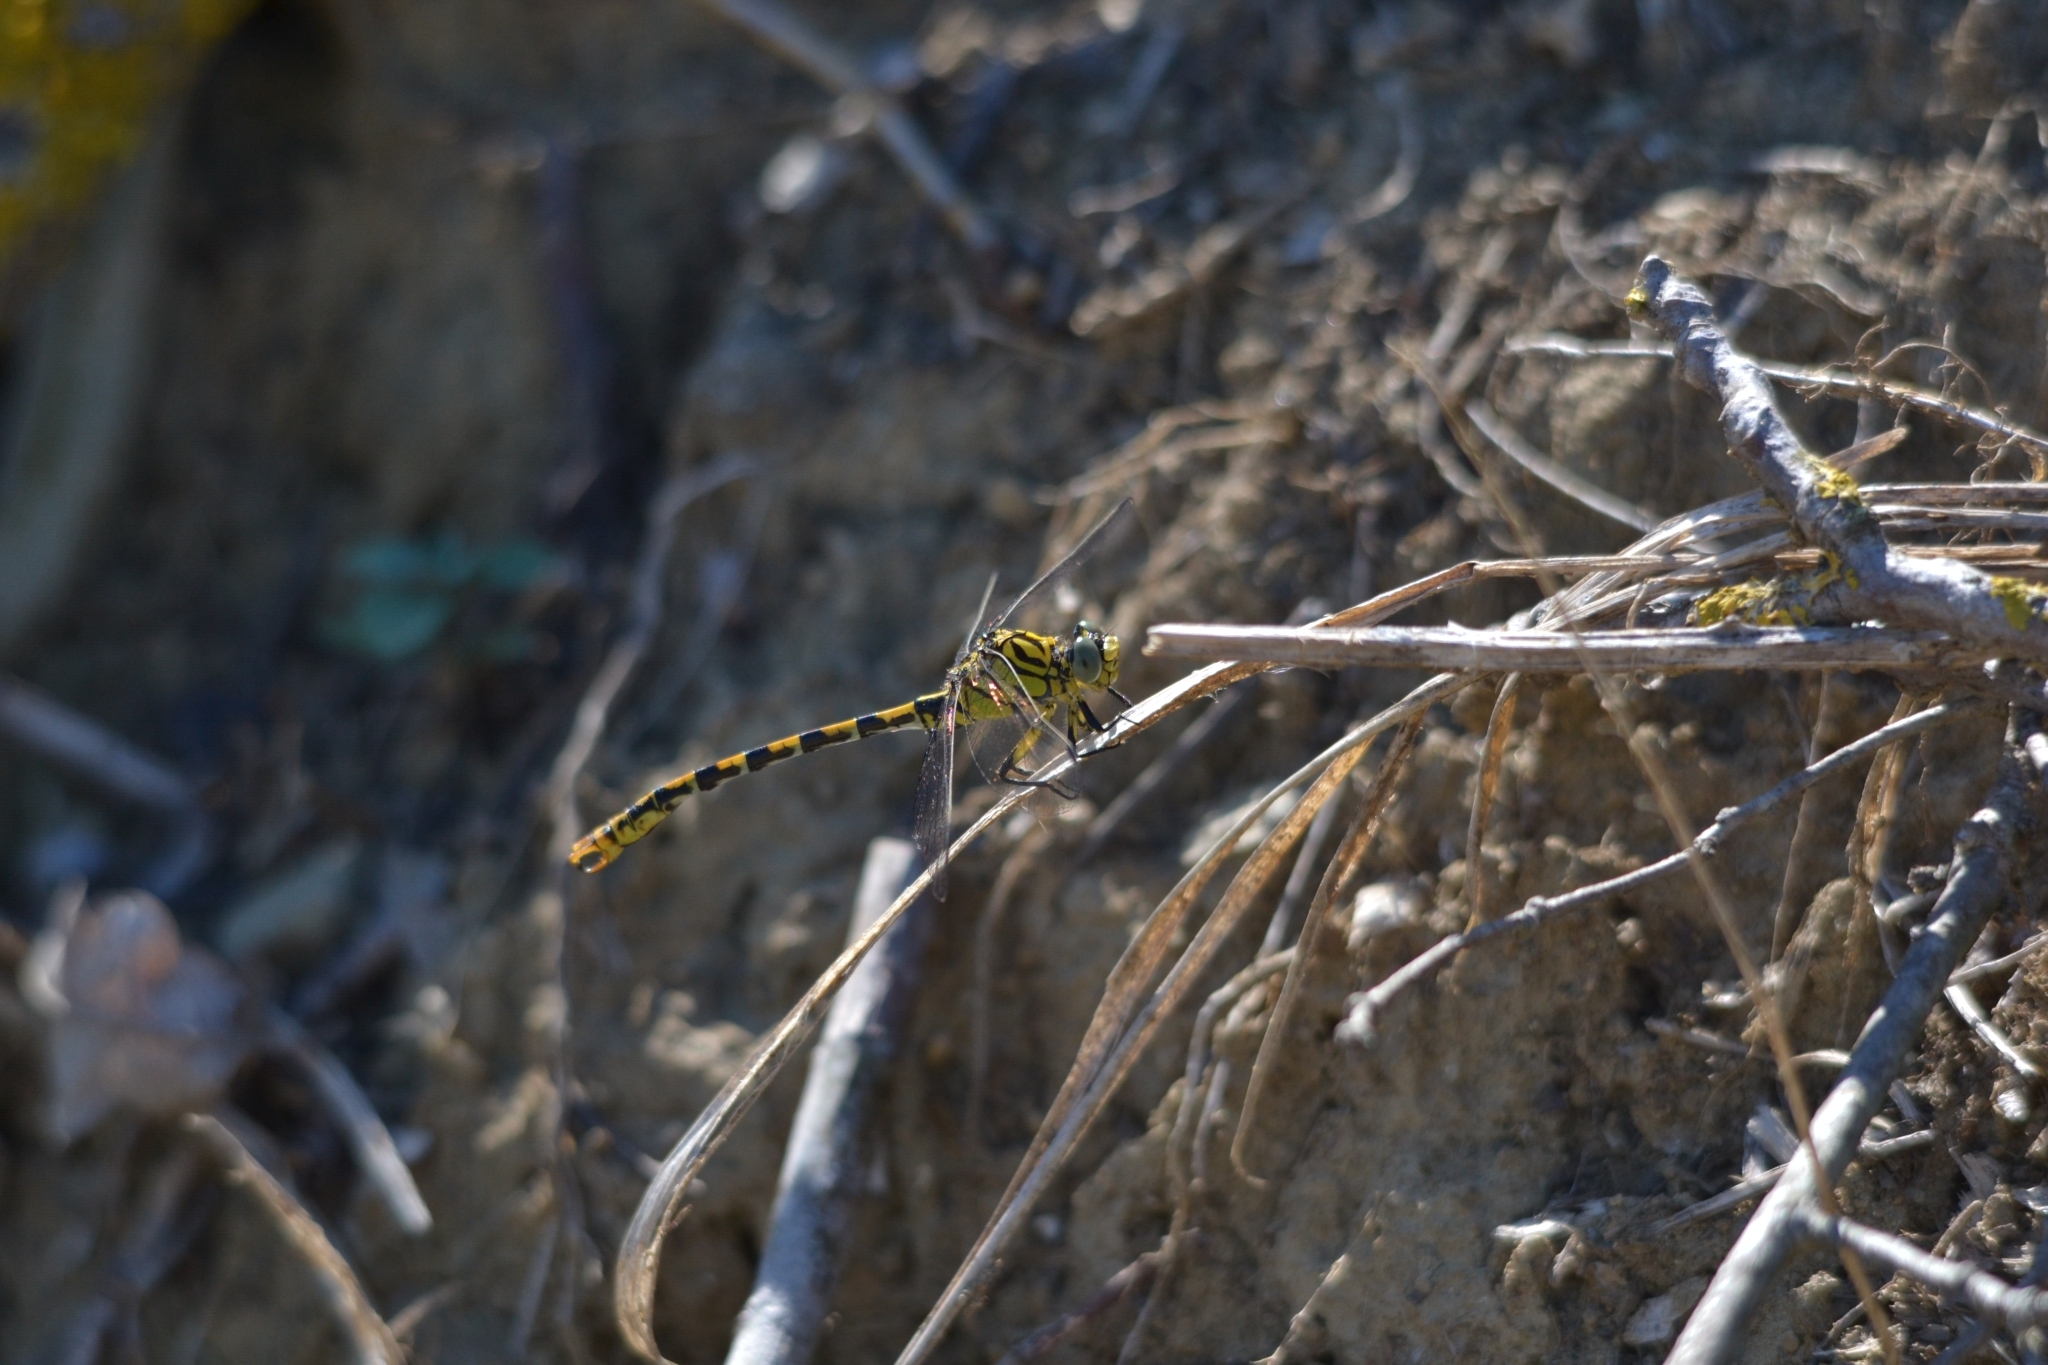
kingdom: Animalia
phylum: Arthropoda
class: Insecta
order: Odonata
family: Gomphidae
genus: Onychogomphus
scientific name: Onychogomphus forcipatus
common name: Small pincertail
